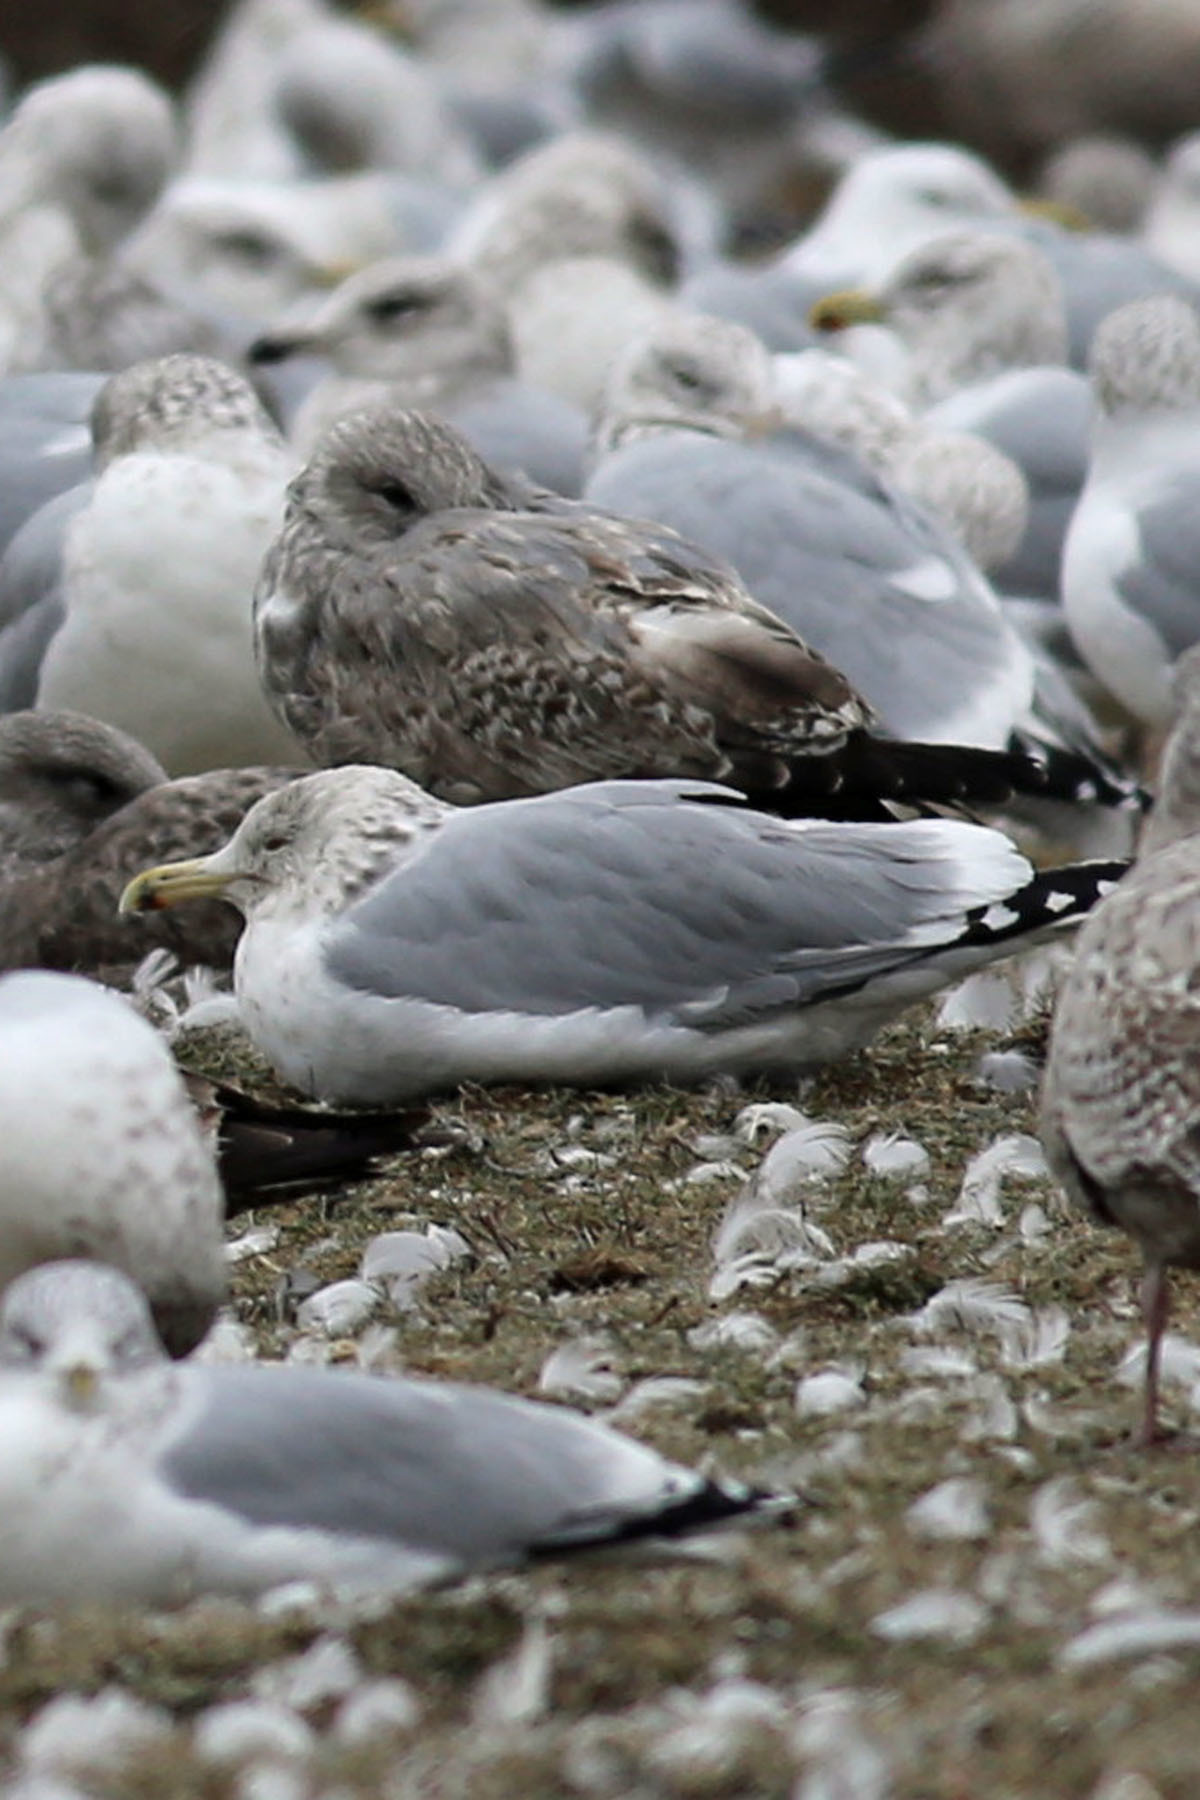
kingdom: Animalia
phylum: Chordata
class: Aves
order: Charadriiformes
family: Laridae
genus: Larus
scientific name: Larus argentatus
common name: Herring gull
